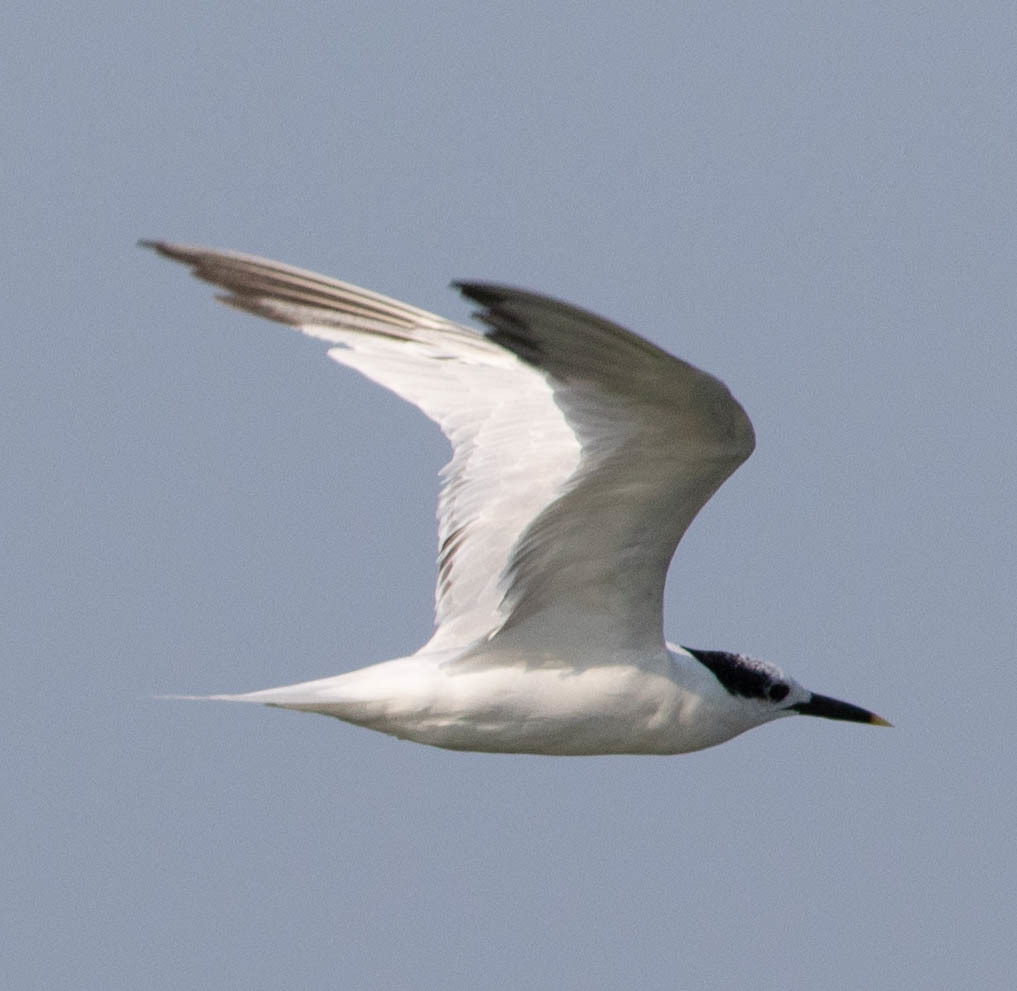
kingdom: Animalia
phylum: Chordata
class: Aves
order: Charadriiformes
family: Laridae
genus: Thalasseus
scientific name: Thalasseus sandvicensis
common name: Sandwich tern
